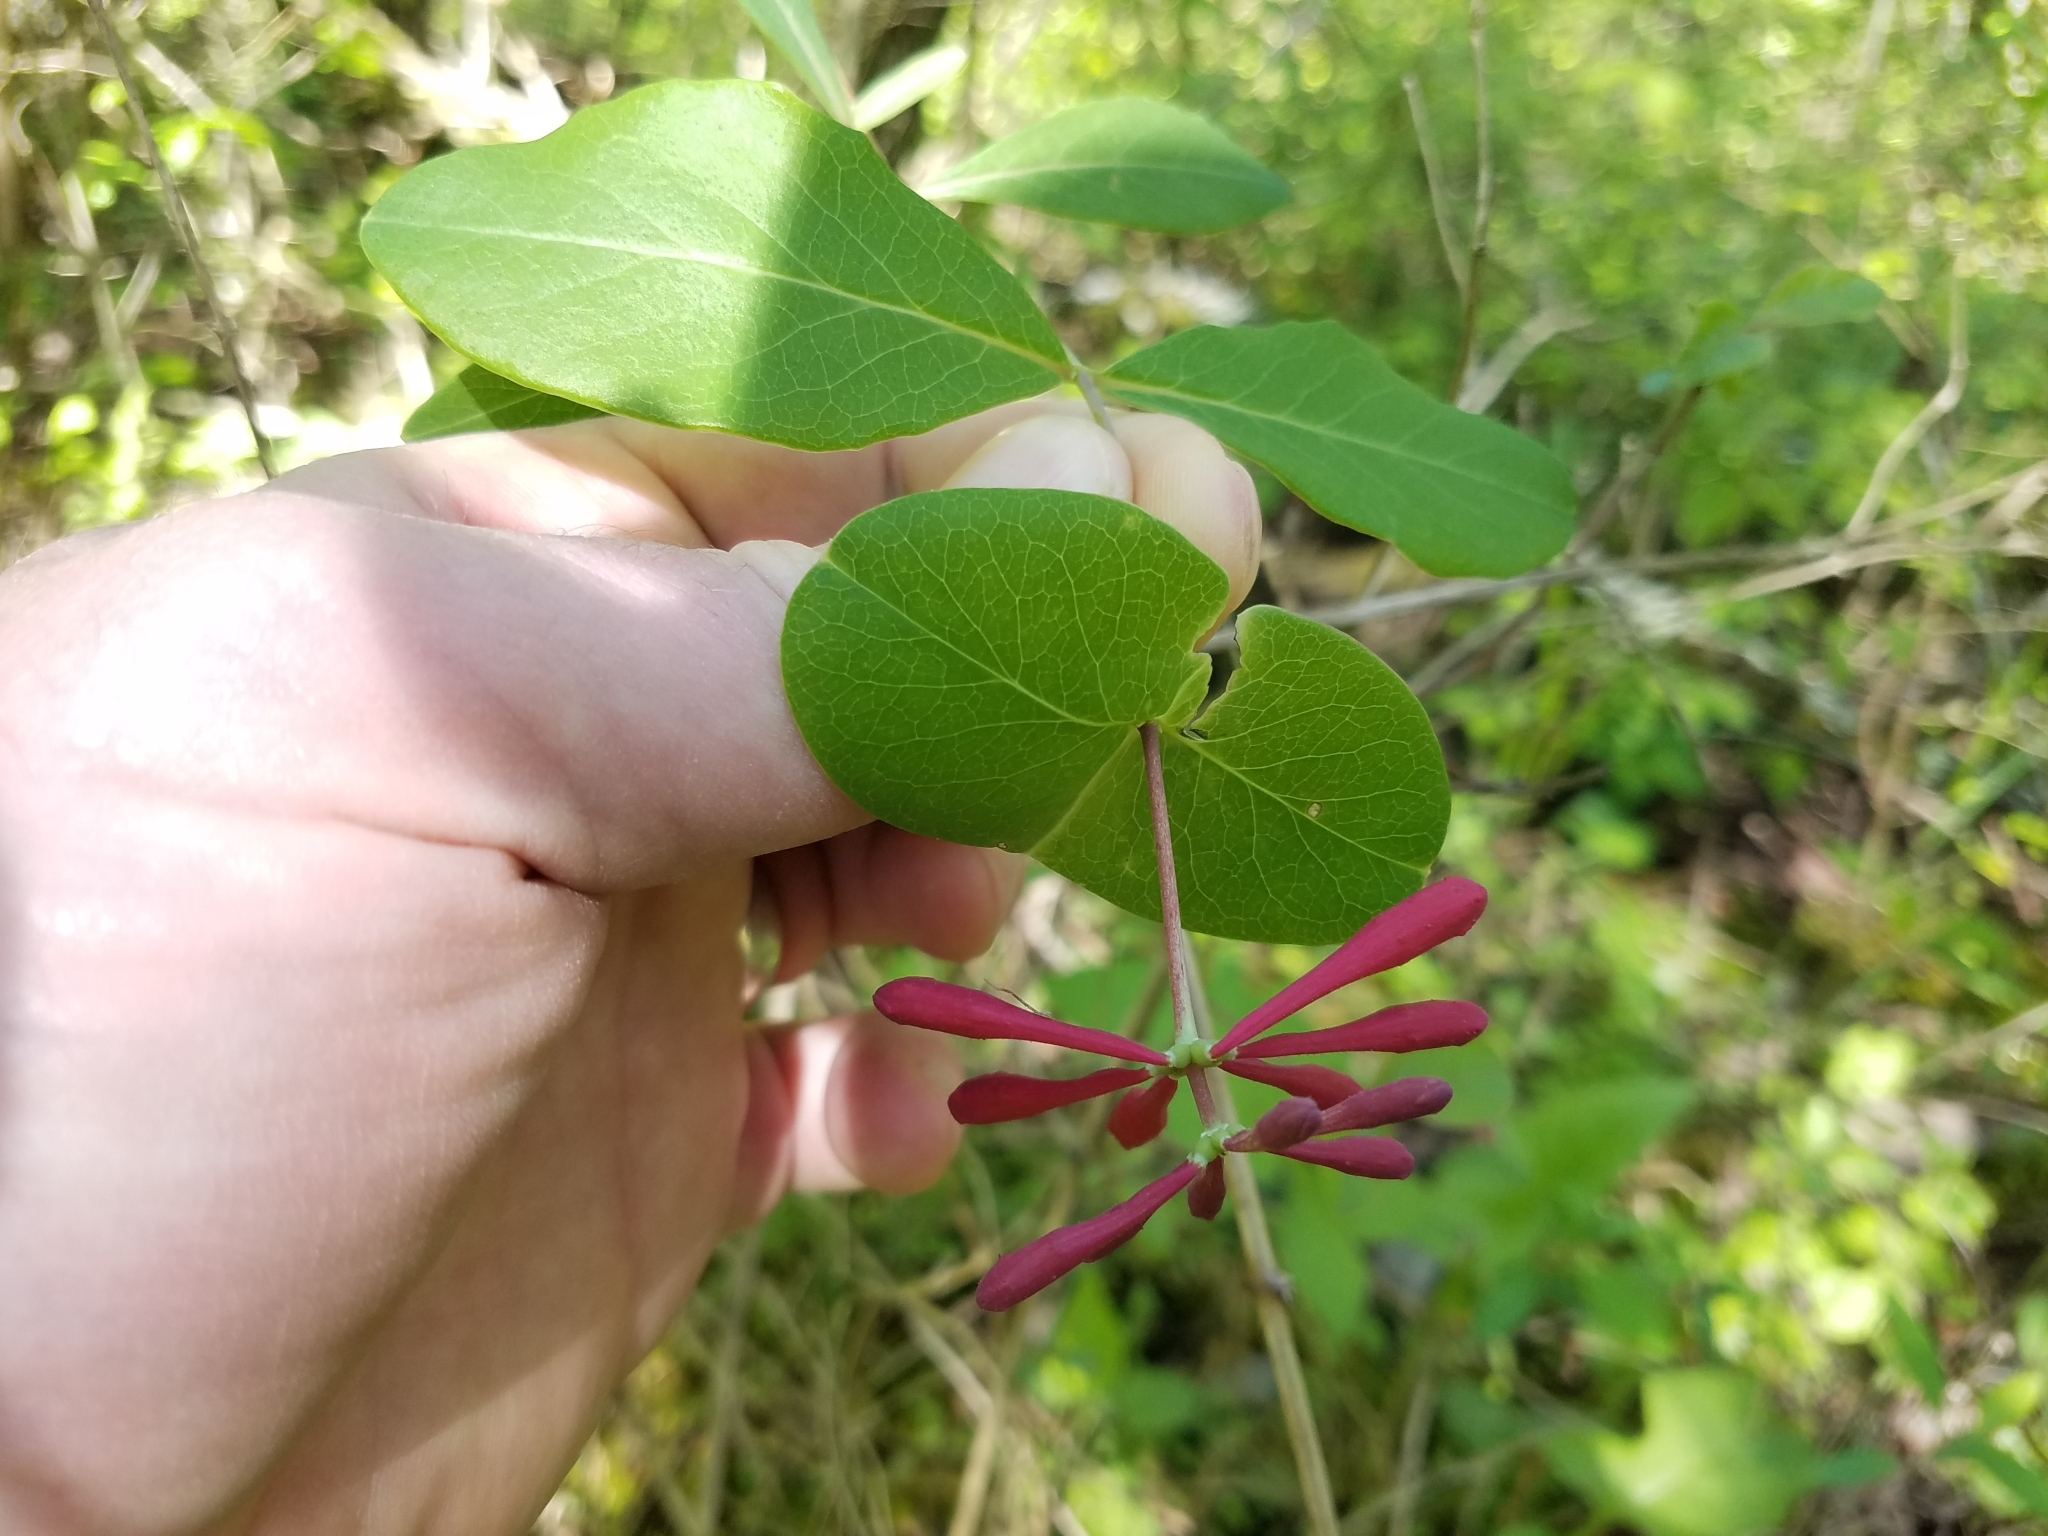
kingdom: Plantae
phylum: Tracheophyta
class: Magnoliopsida
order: Dipsacales
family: Caprifoliaceae
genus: Lonicera
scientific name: Lonicera sempervirens
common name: Coral honeysuckle
